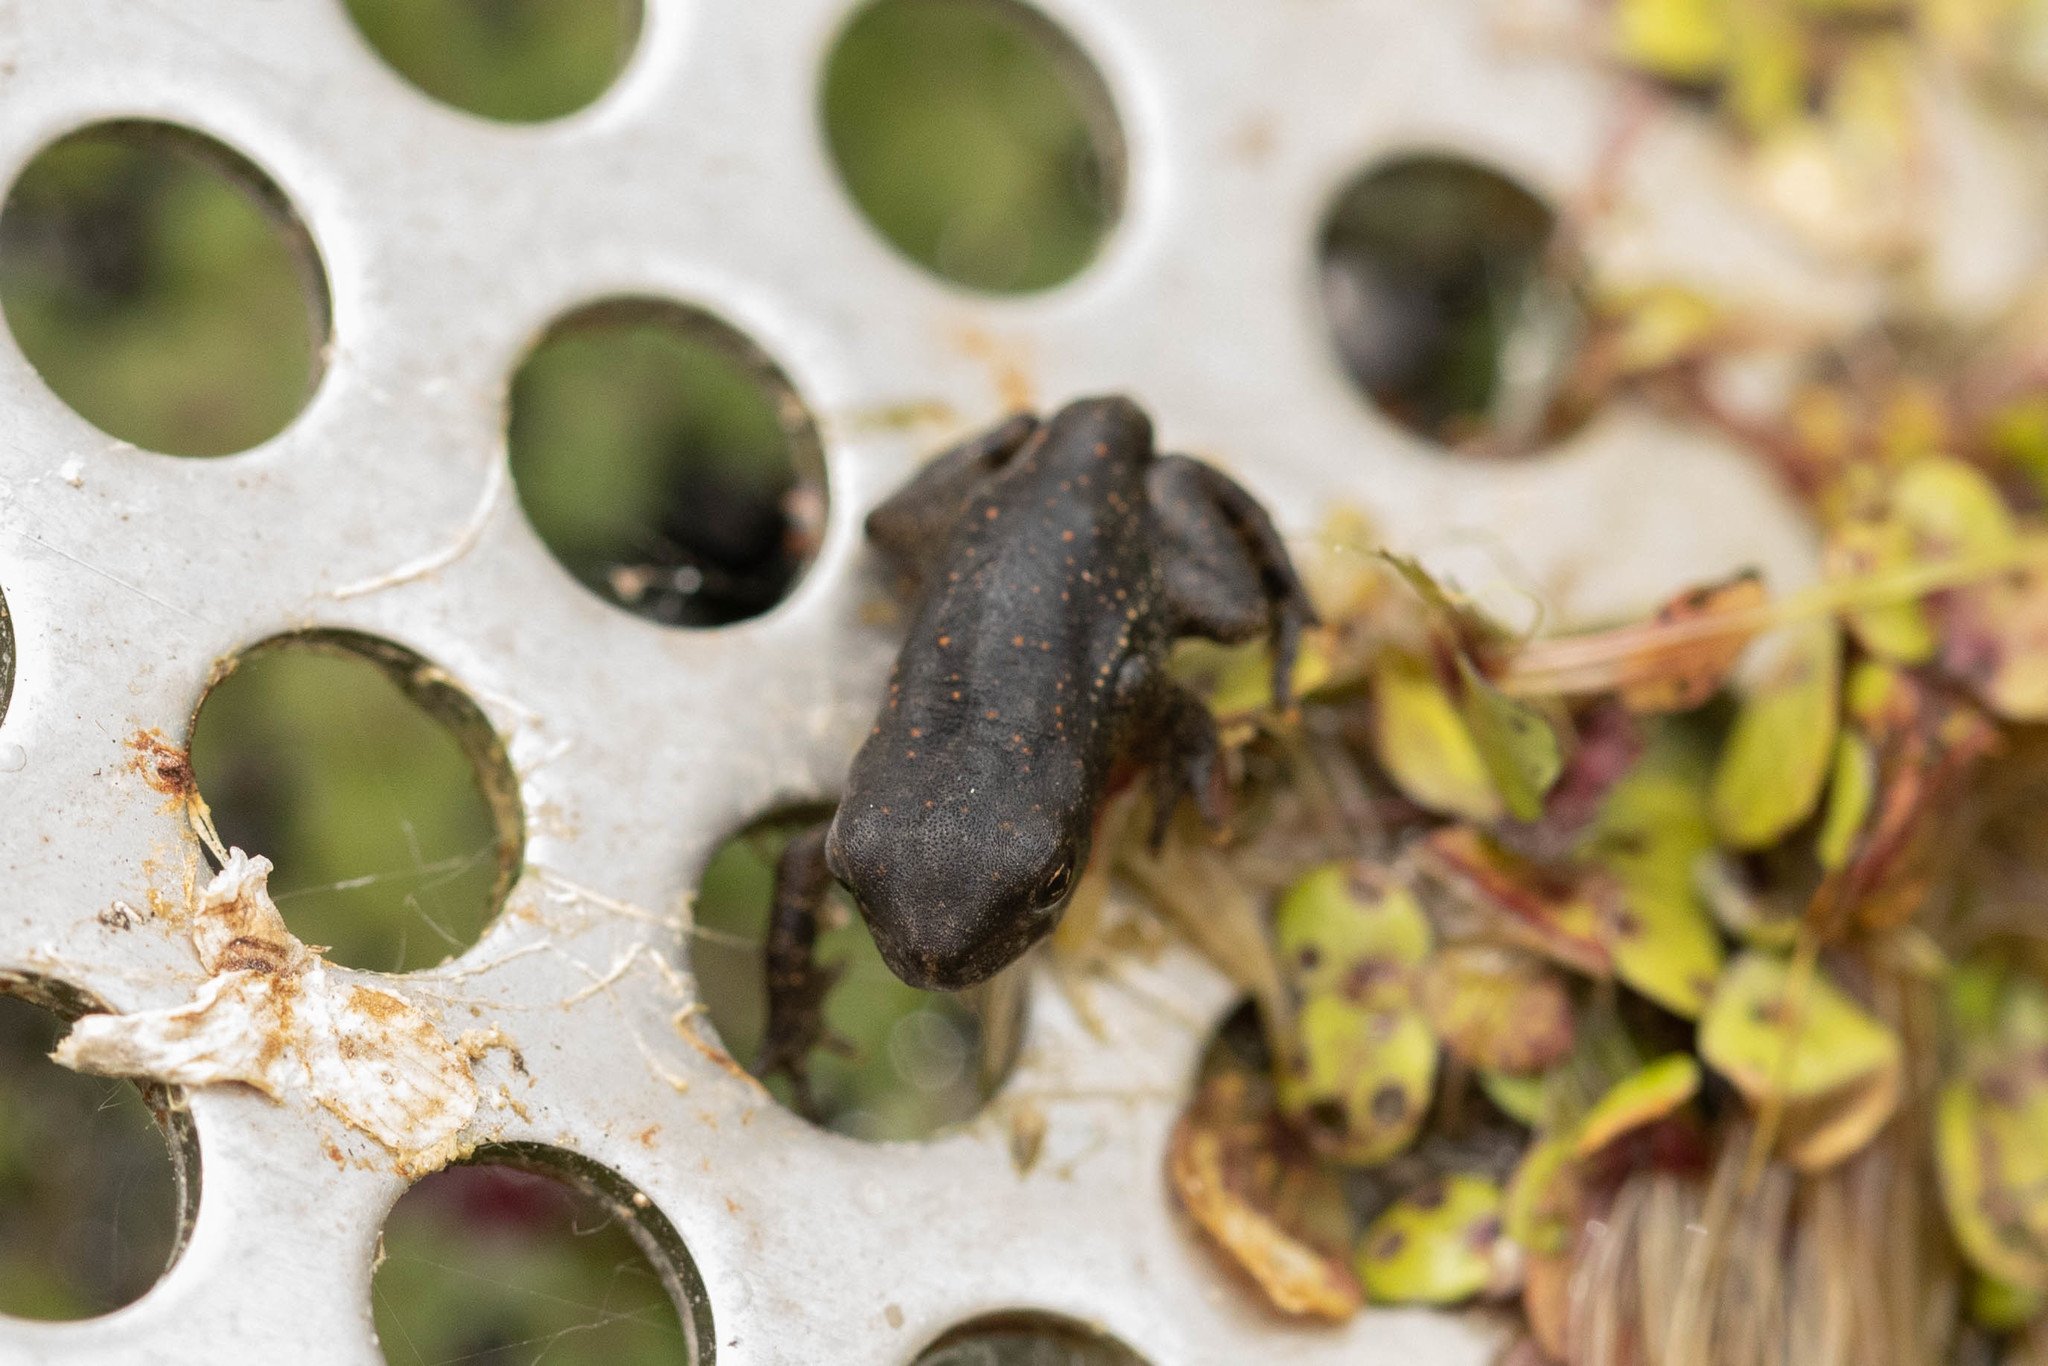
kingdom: Animalia
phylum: Chordata
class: Amphibia
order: Anura
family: Bufonidae
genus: Anaxyrus
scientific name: Anaxyrus americanus
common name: American toad
